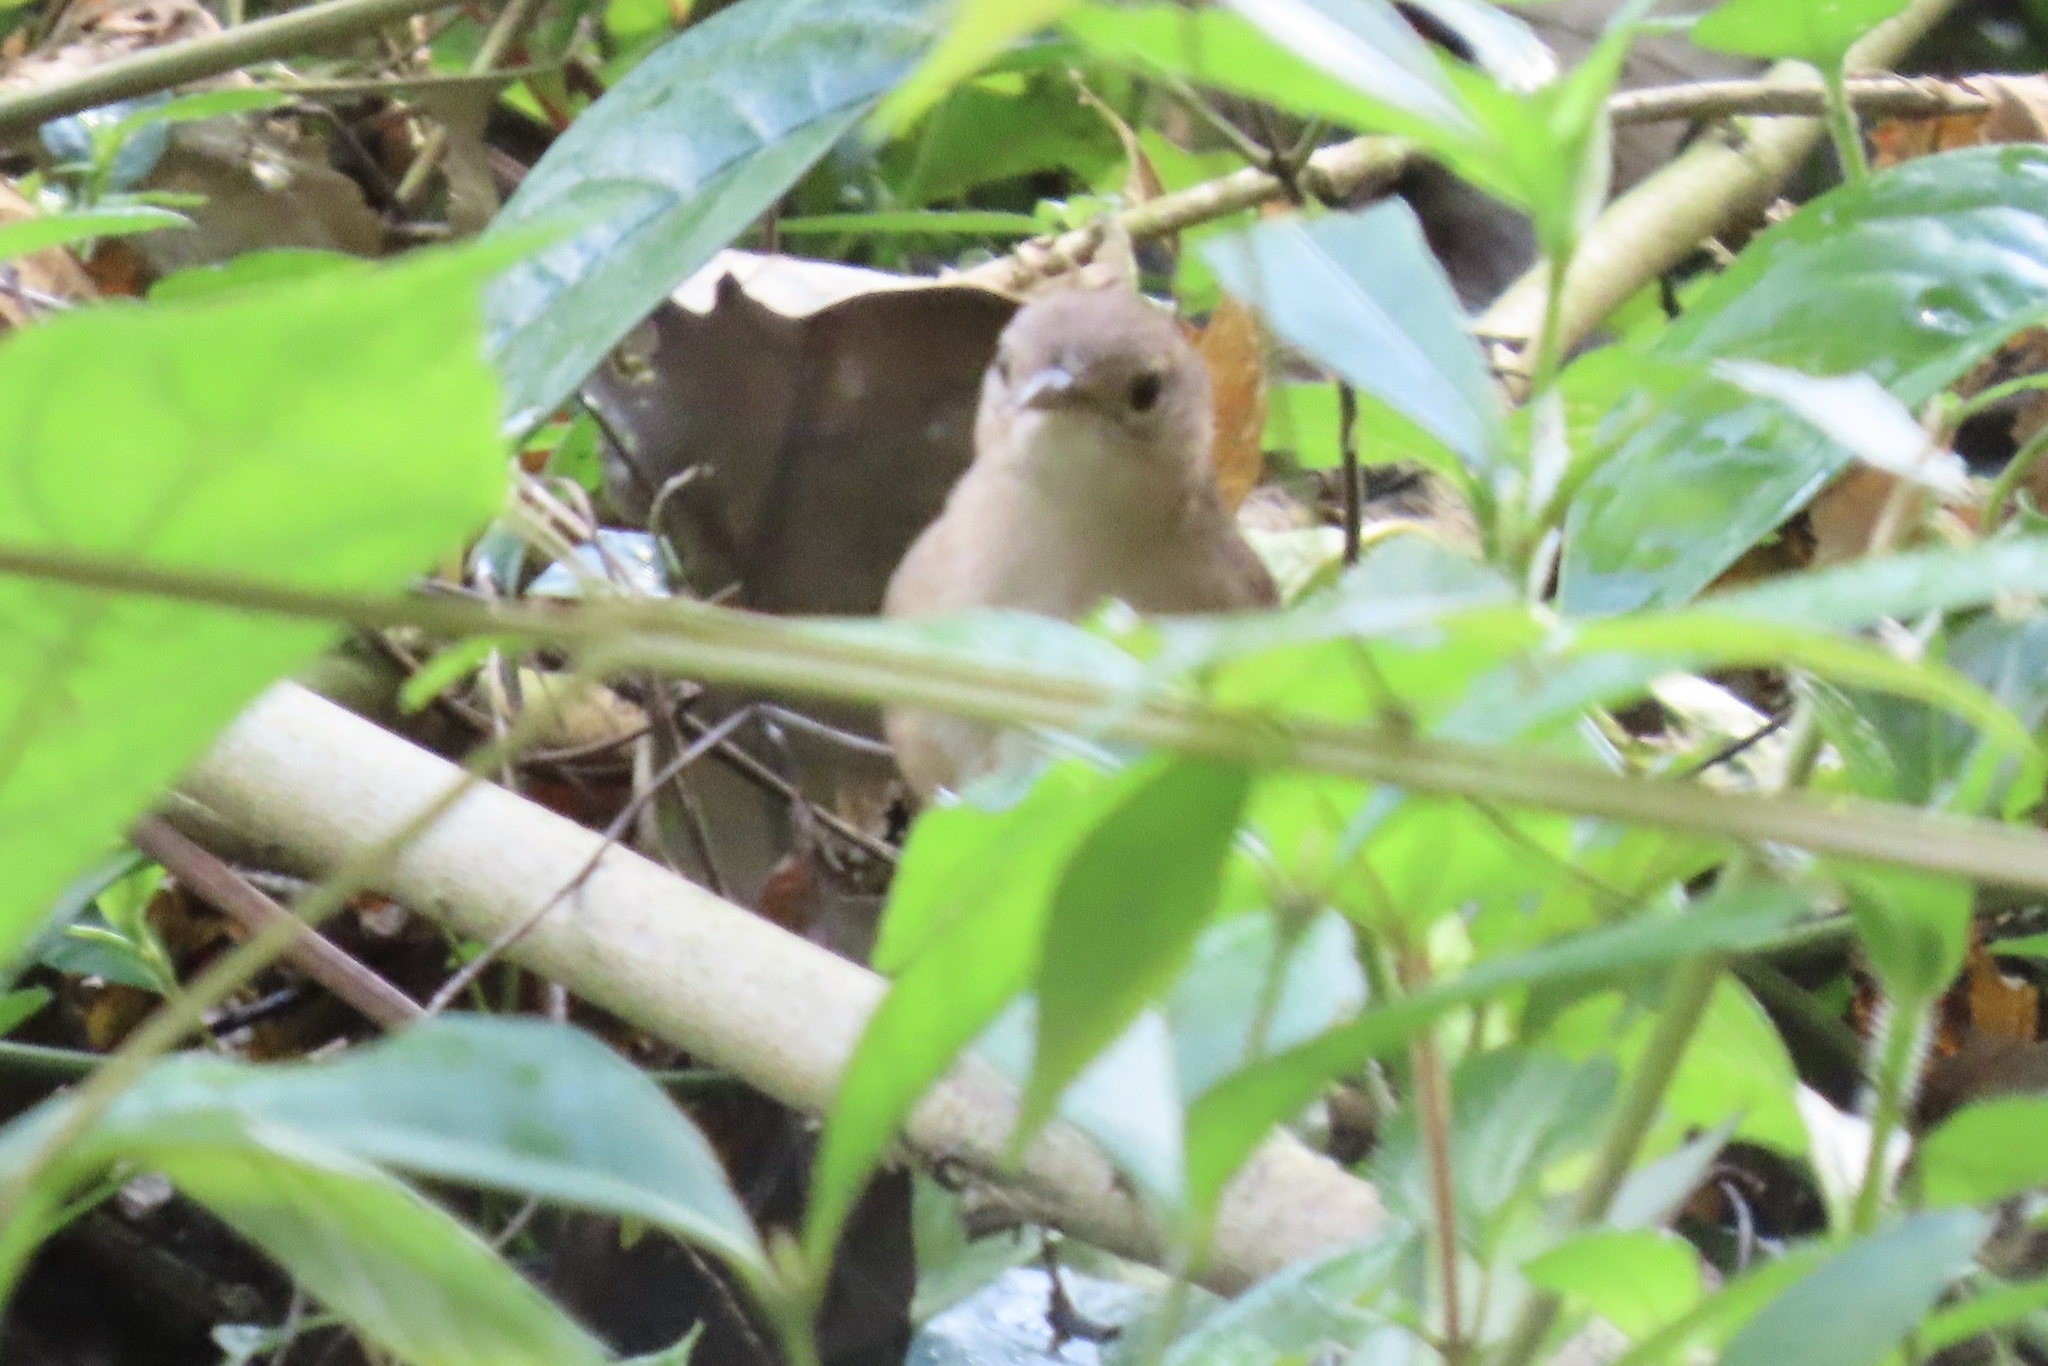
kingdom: Animalia
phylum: Chordata
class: Aves
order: Passeriformes
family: Troglodytidae
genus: Troglodytes
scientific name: Troglodytes aedon
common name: House wren
